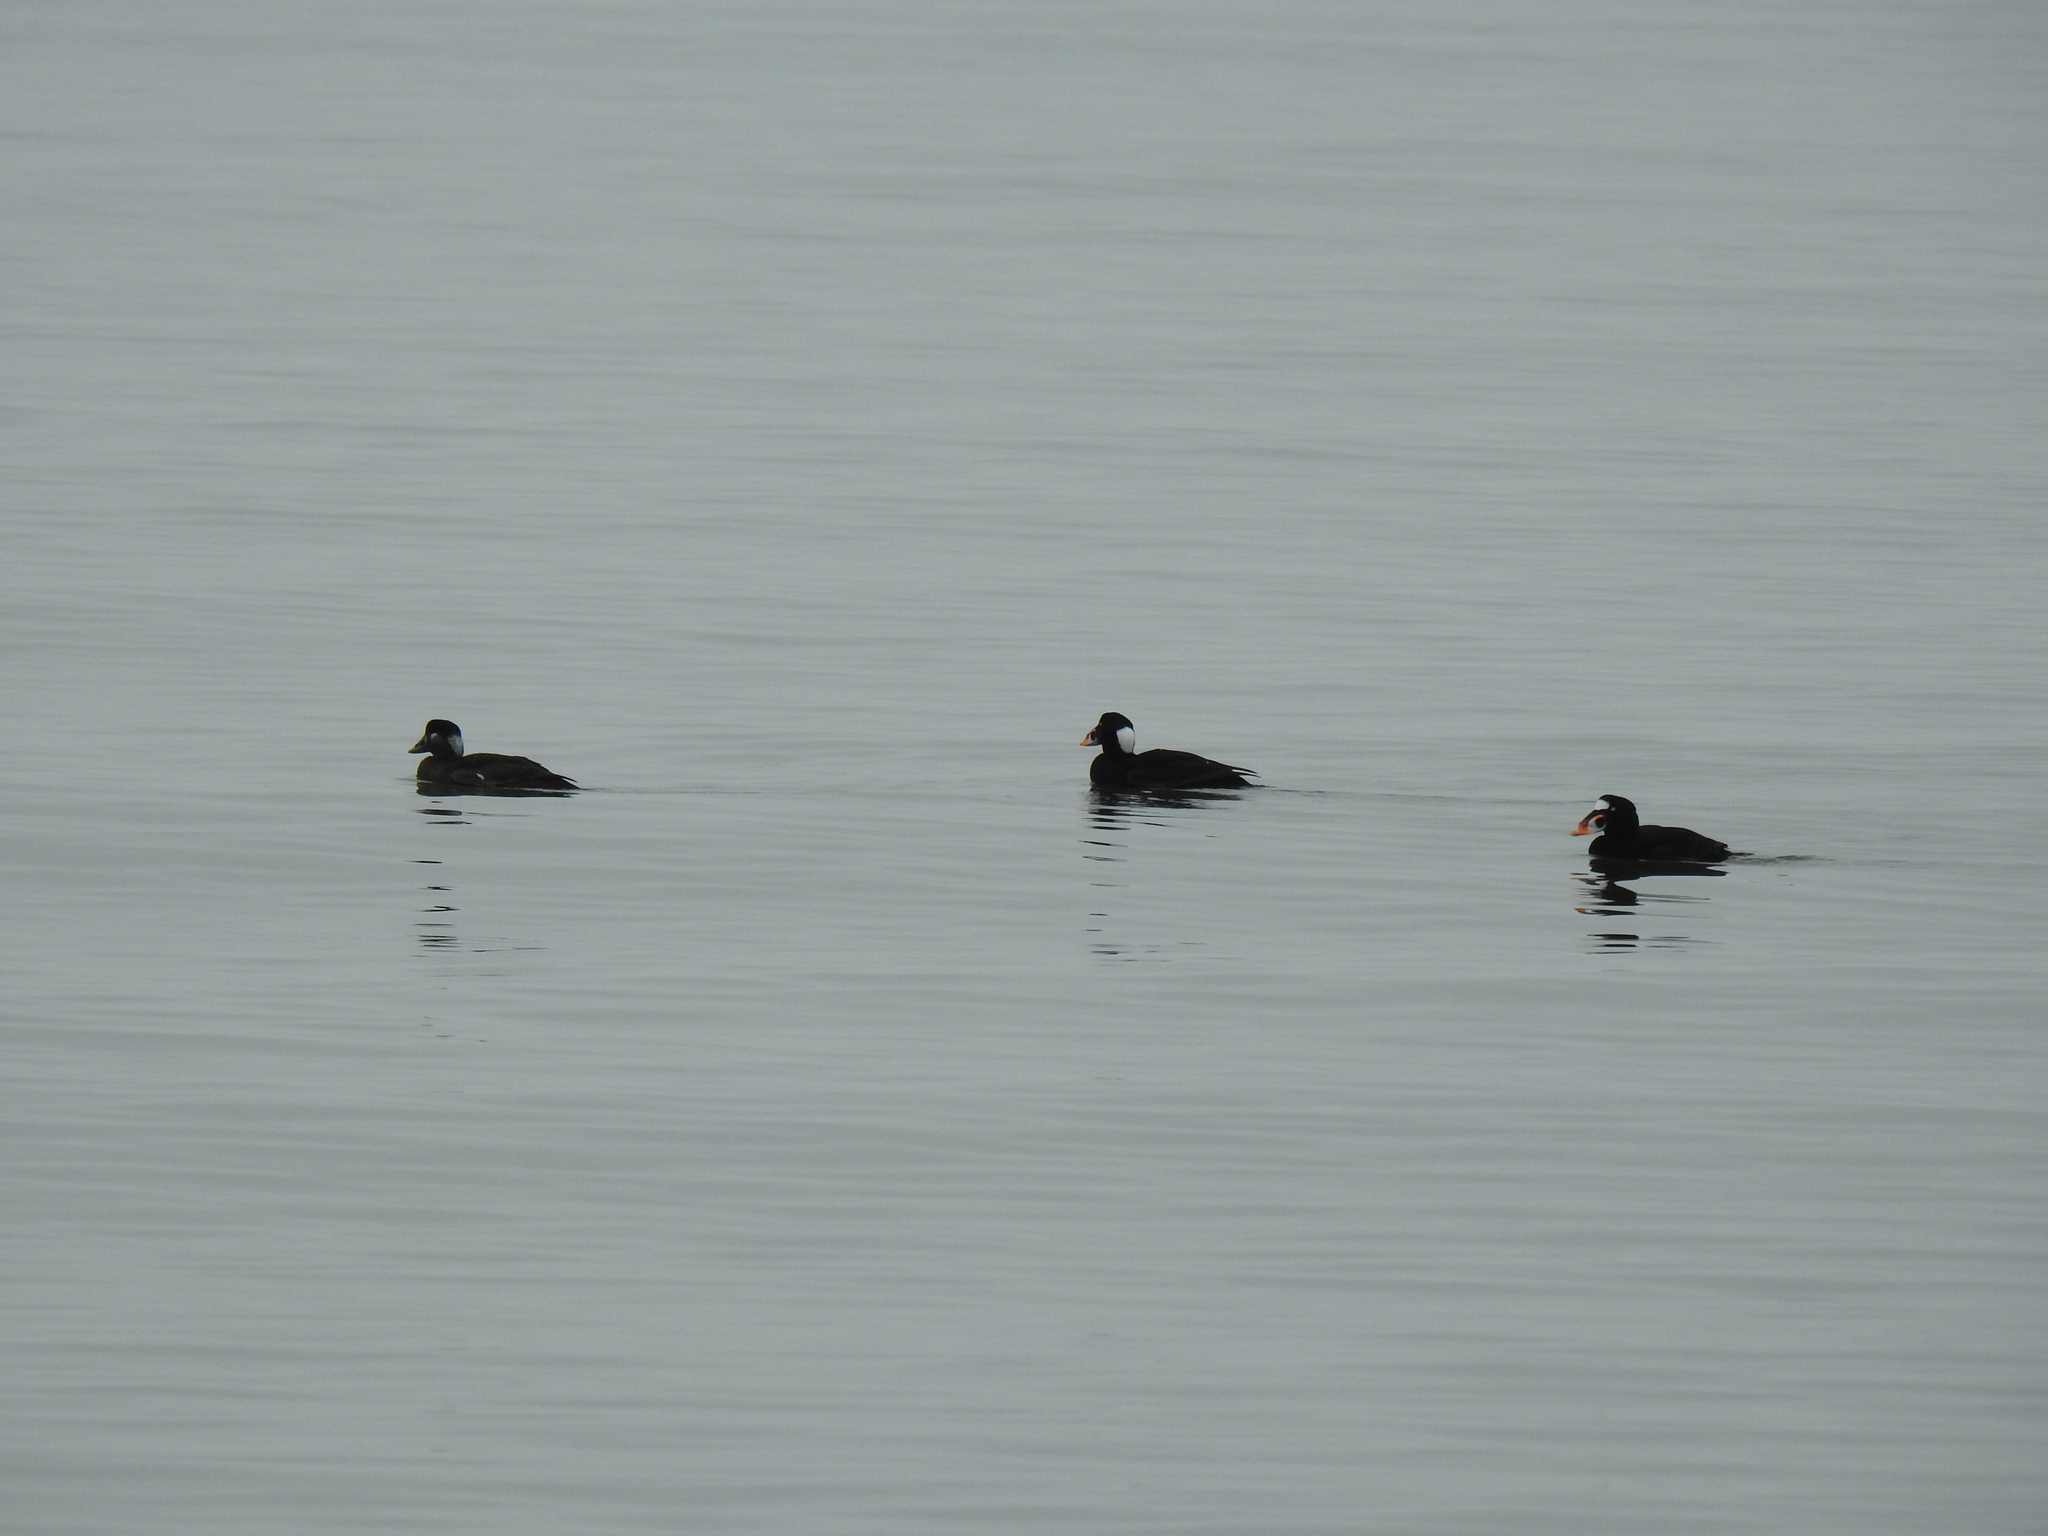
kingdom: Animalia
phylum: Chordata
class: Aves
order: Anseriformes
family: Anatidae
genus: Melanitta
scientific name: Melanitta perspicillata
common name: Surf scoter
